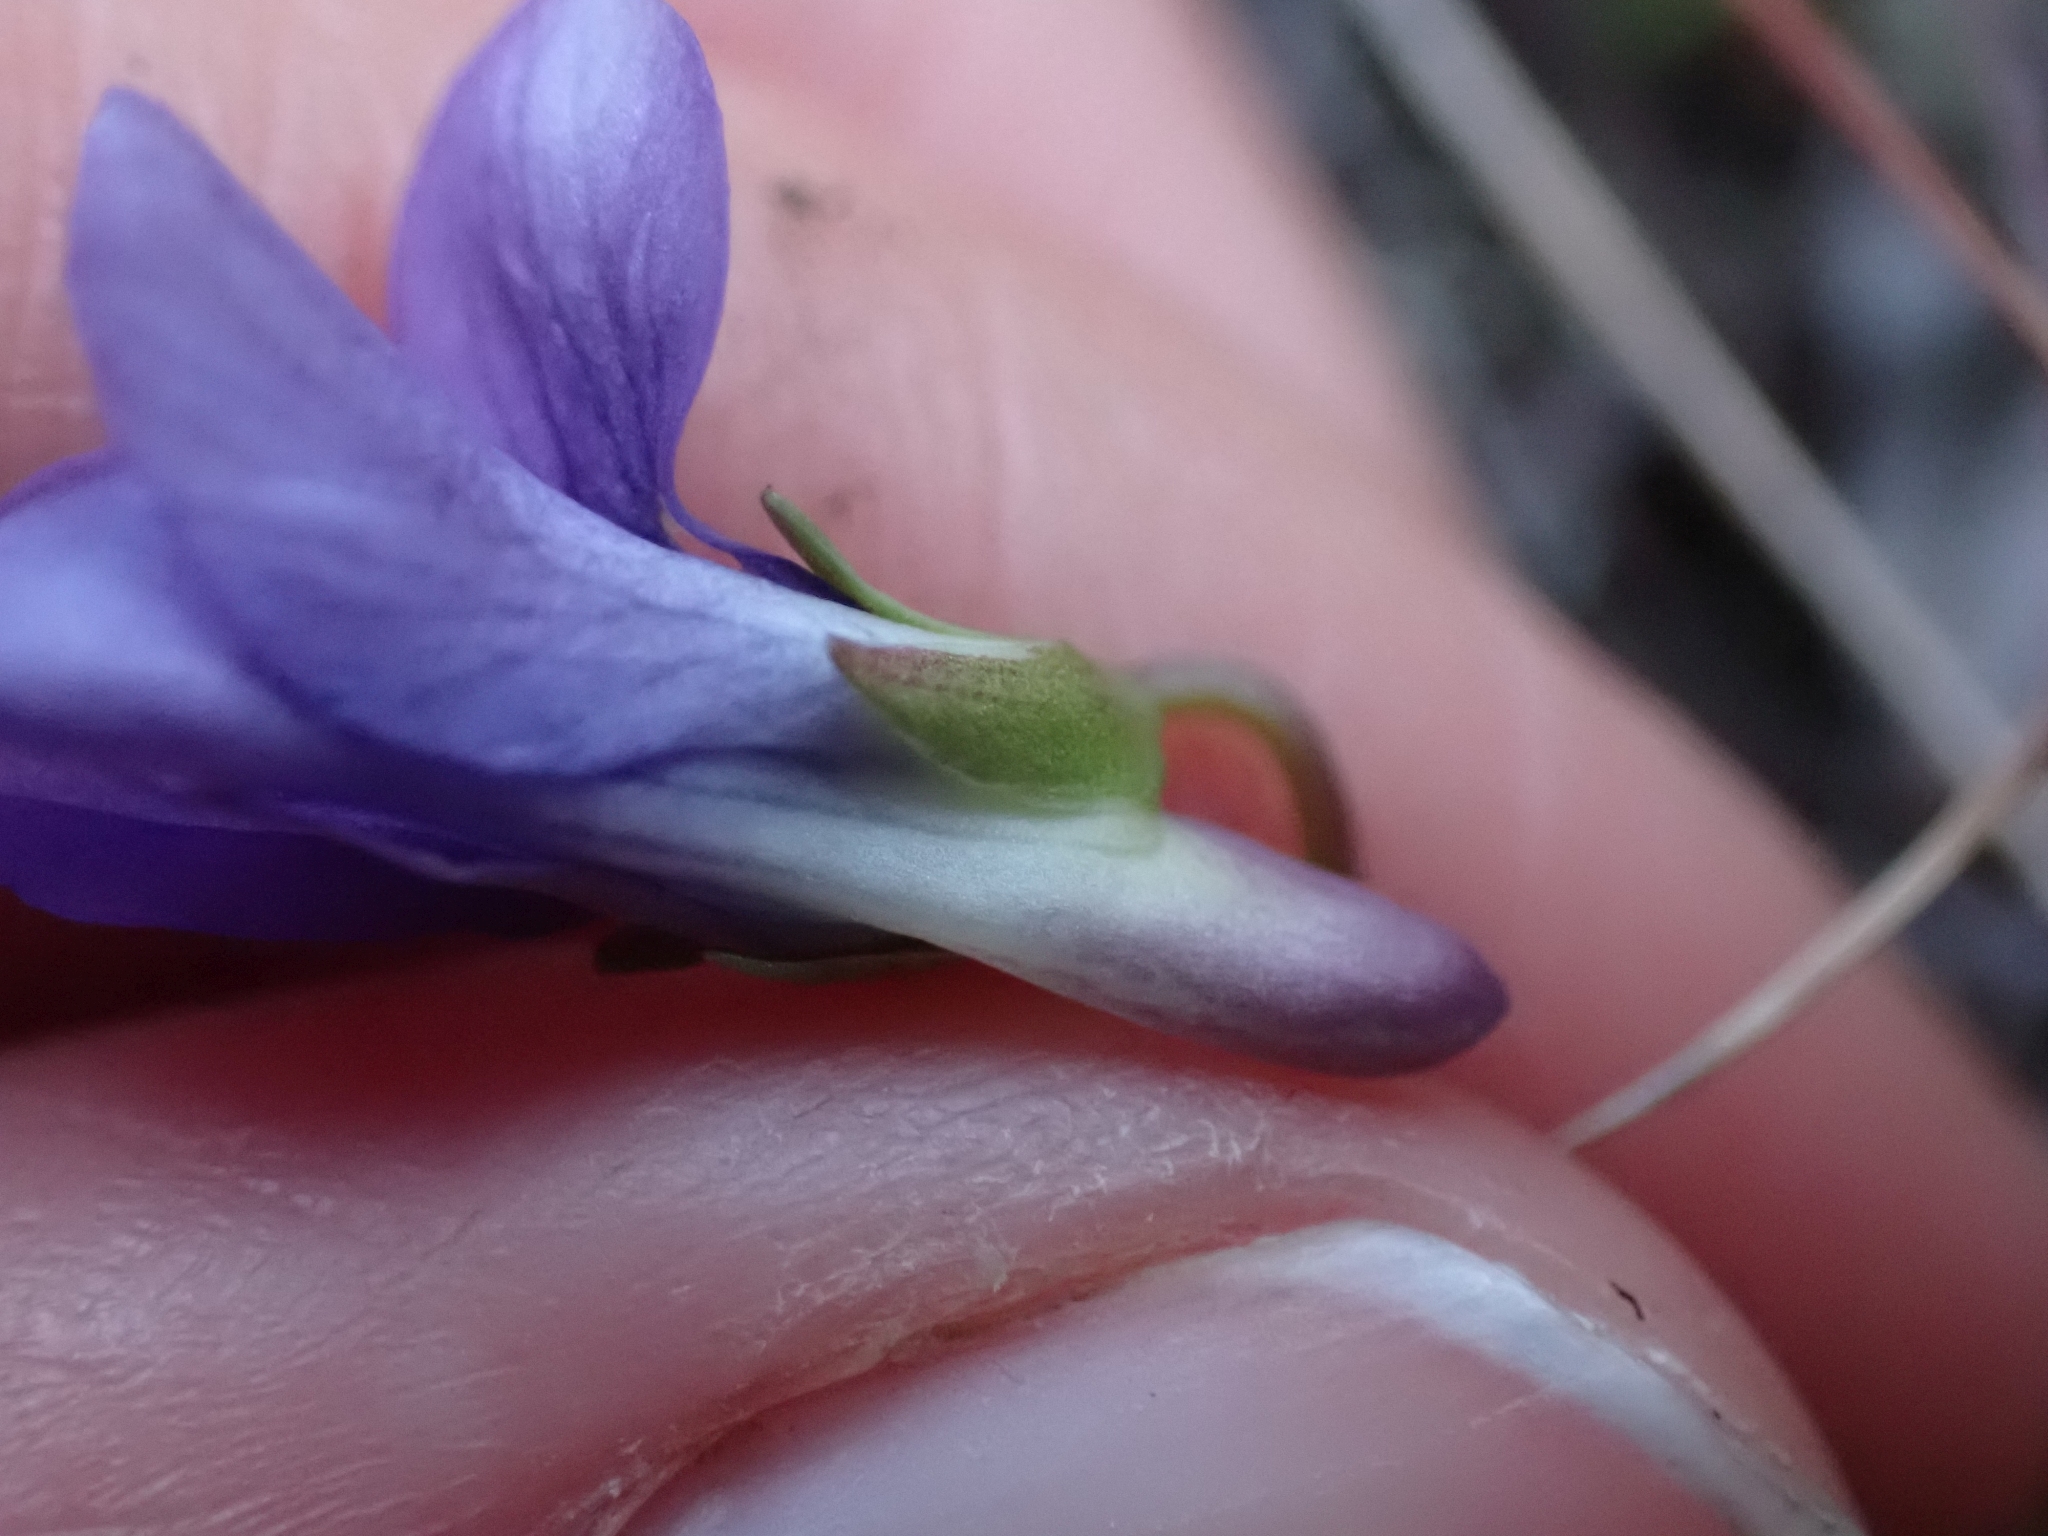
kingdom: Plantae
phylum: Tracheophyta
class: Magnoliopsida
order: Malpighiales
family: Violaceae
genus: Viola
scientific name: Viola adunca
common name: Sand violet
